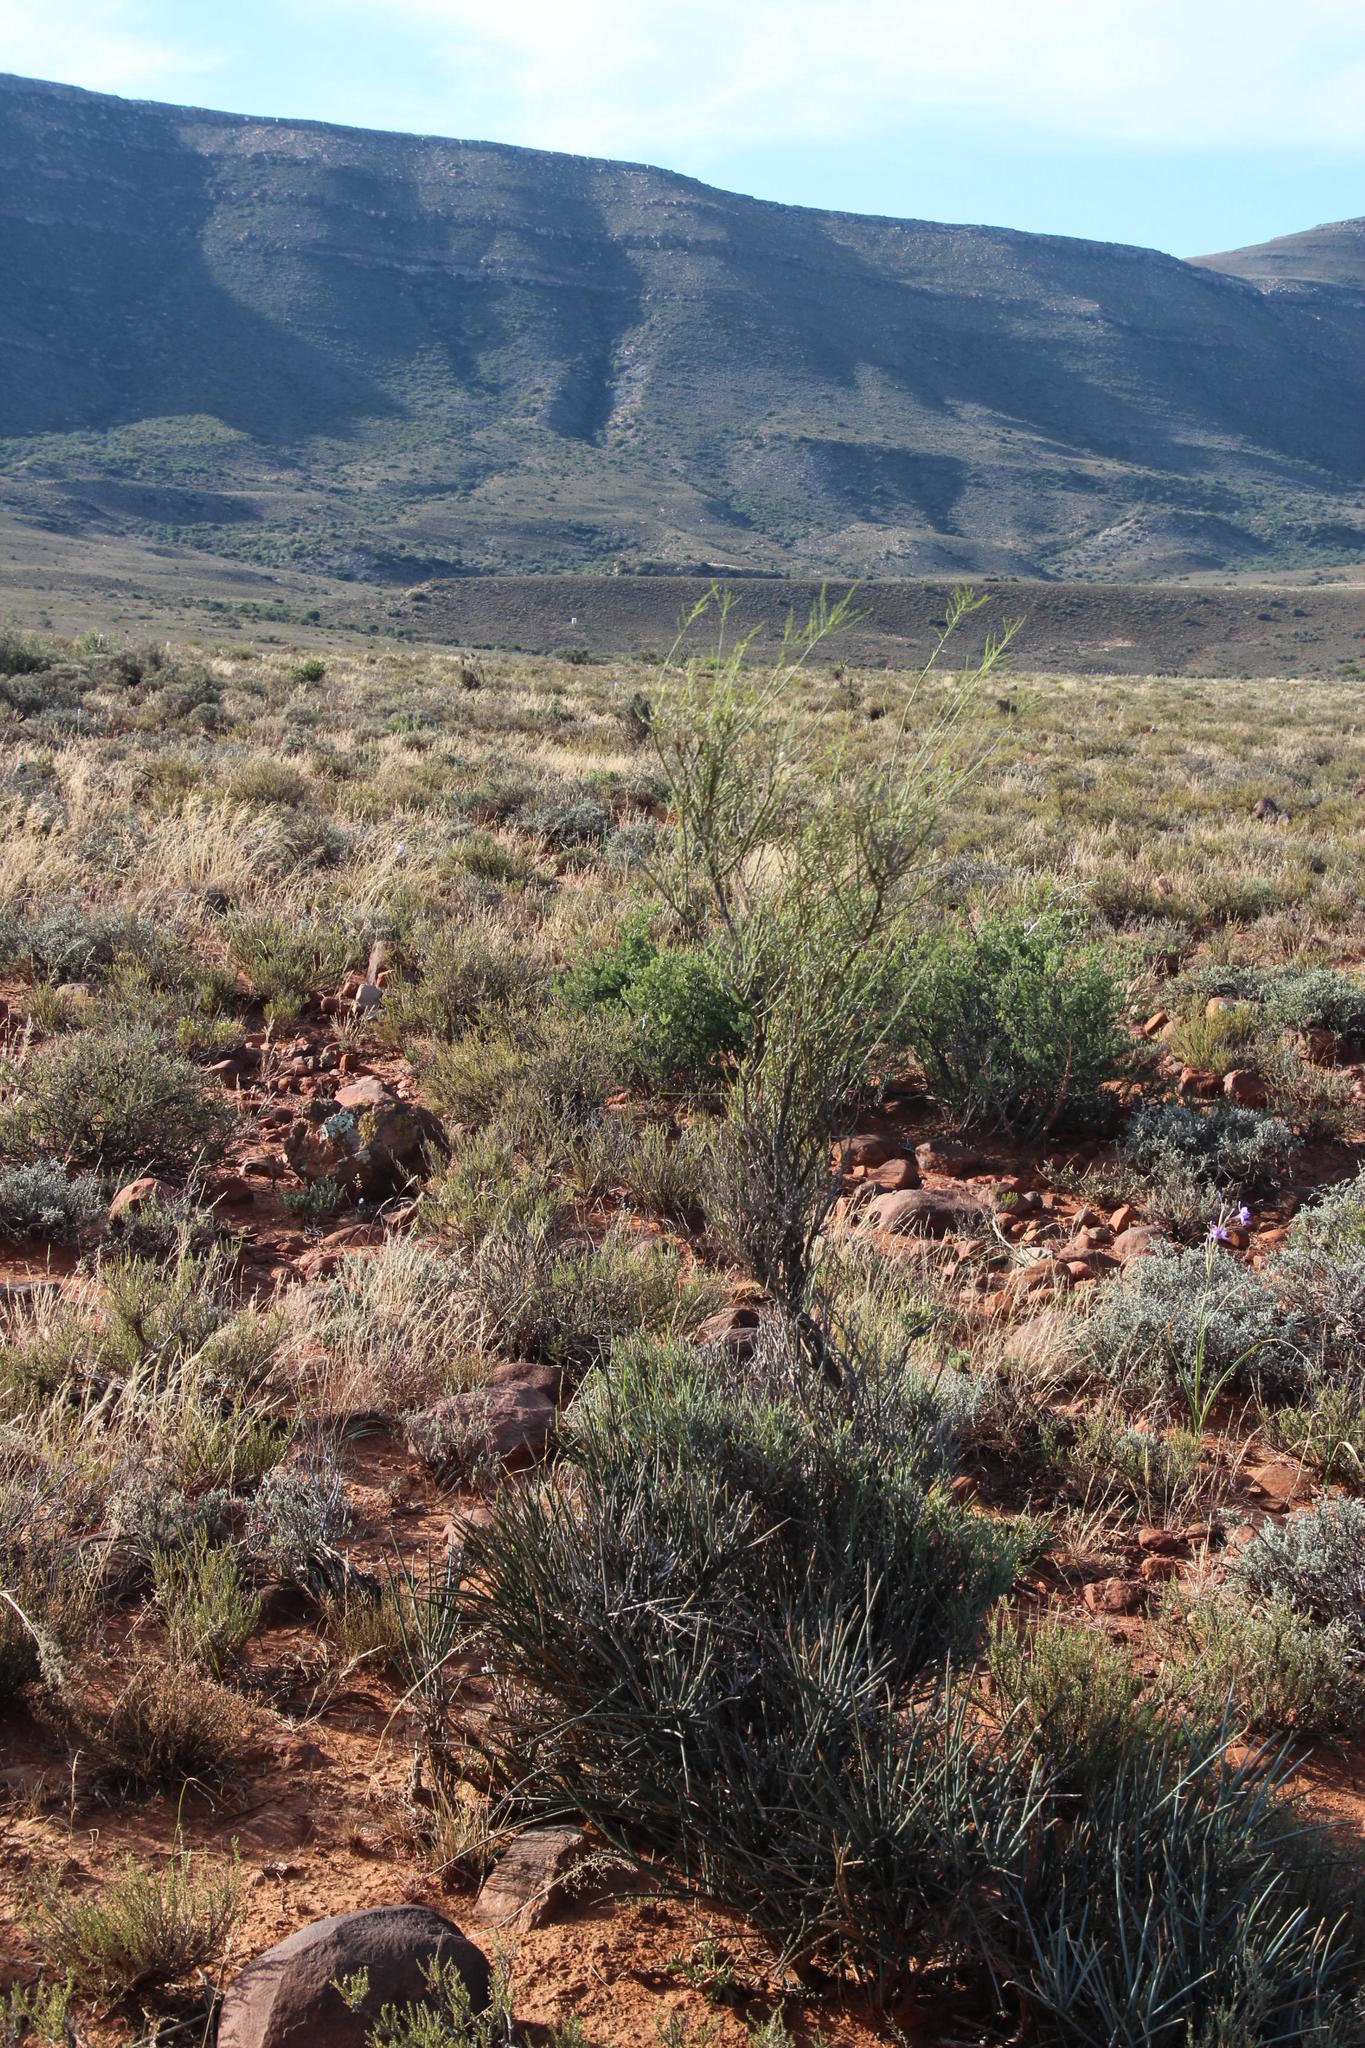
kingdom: Plantae
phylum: Tracheophyta
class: Magnoliopsida
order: Brassicales
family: Capparaceae
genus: Cadaba
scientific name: Cadaba aphylla
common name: Black storm
